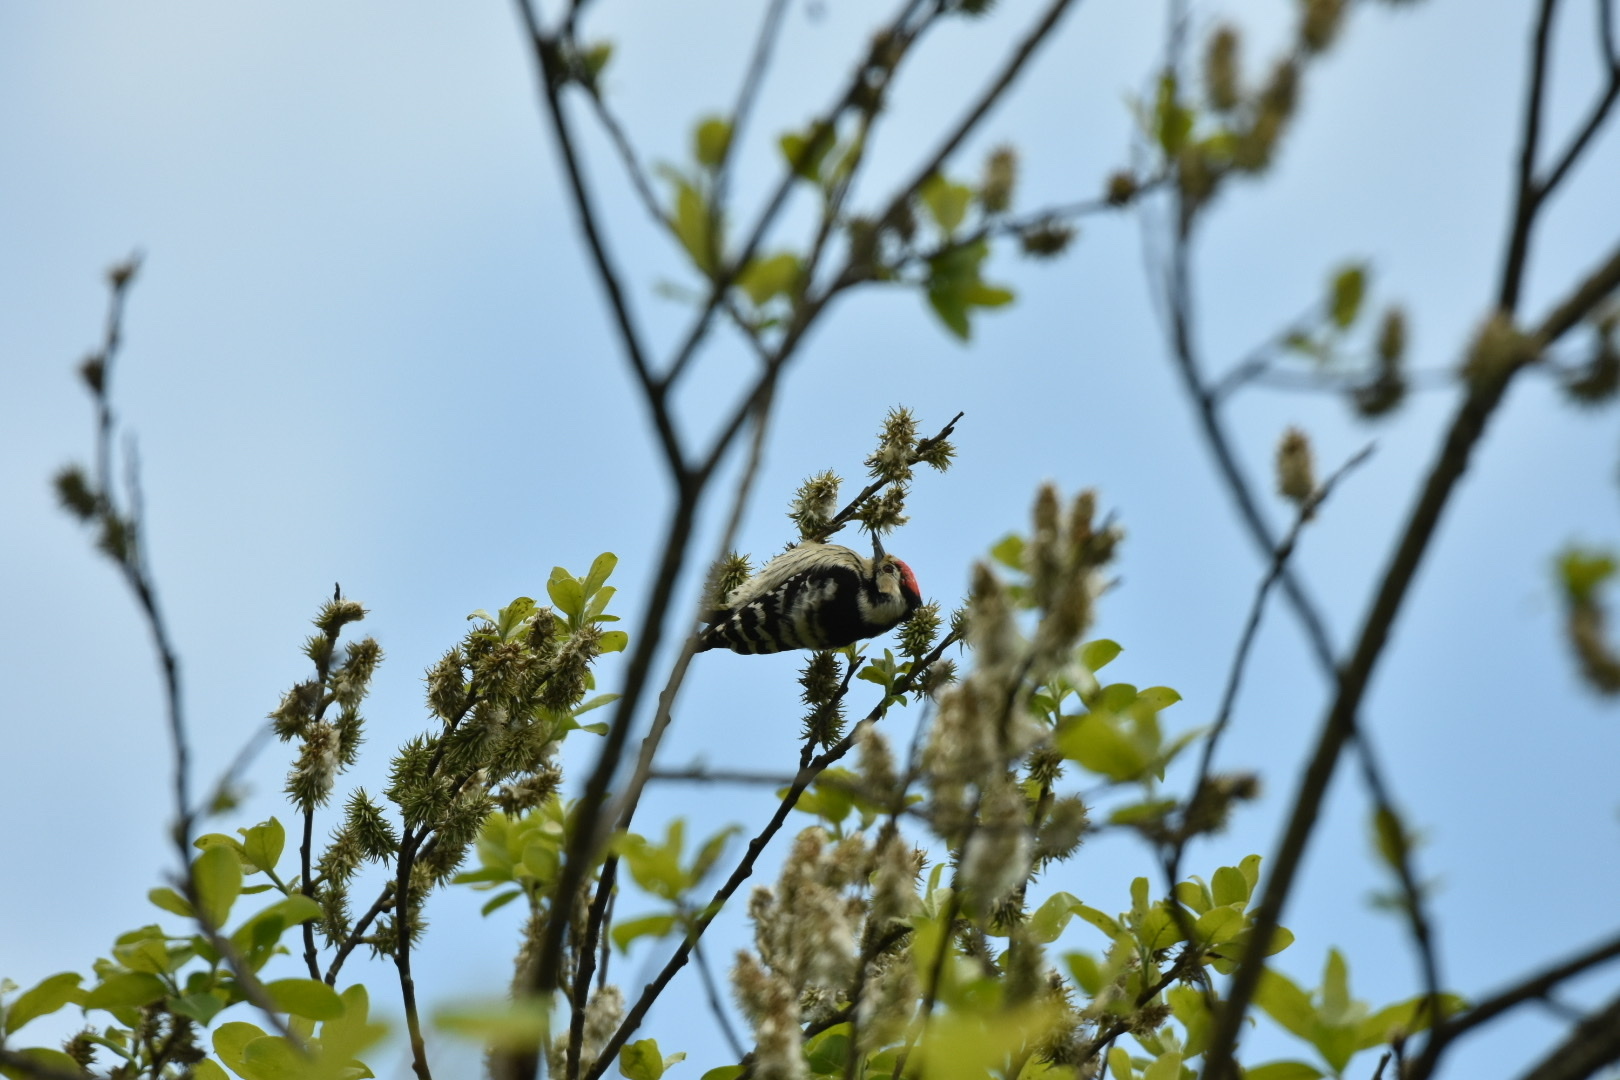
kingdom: Animalia
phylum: Chordata
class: Aves
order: Piciformes
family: Picidae
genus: Dryobates
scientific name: Dryobates minor
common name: Lesser spotted woodpecker
